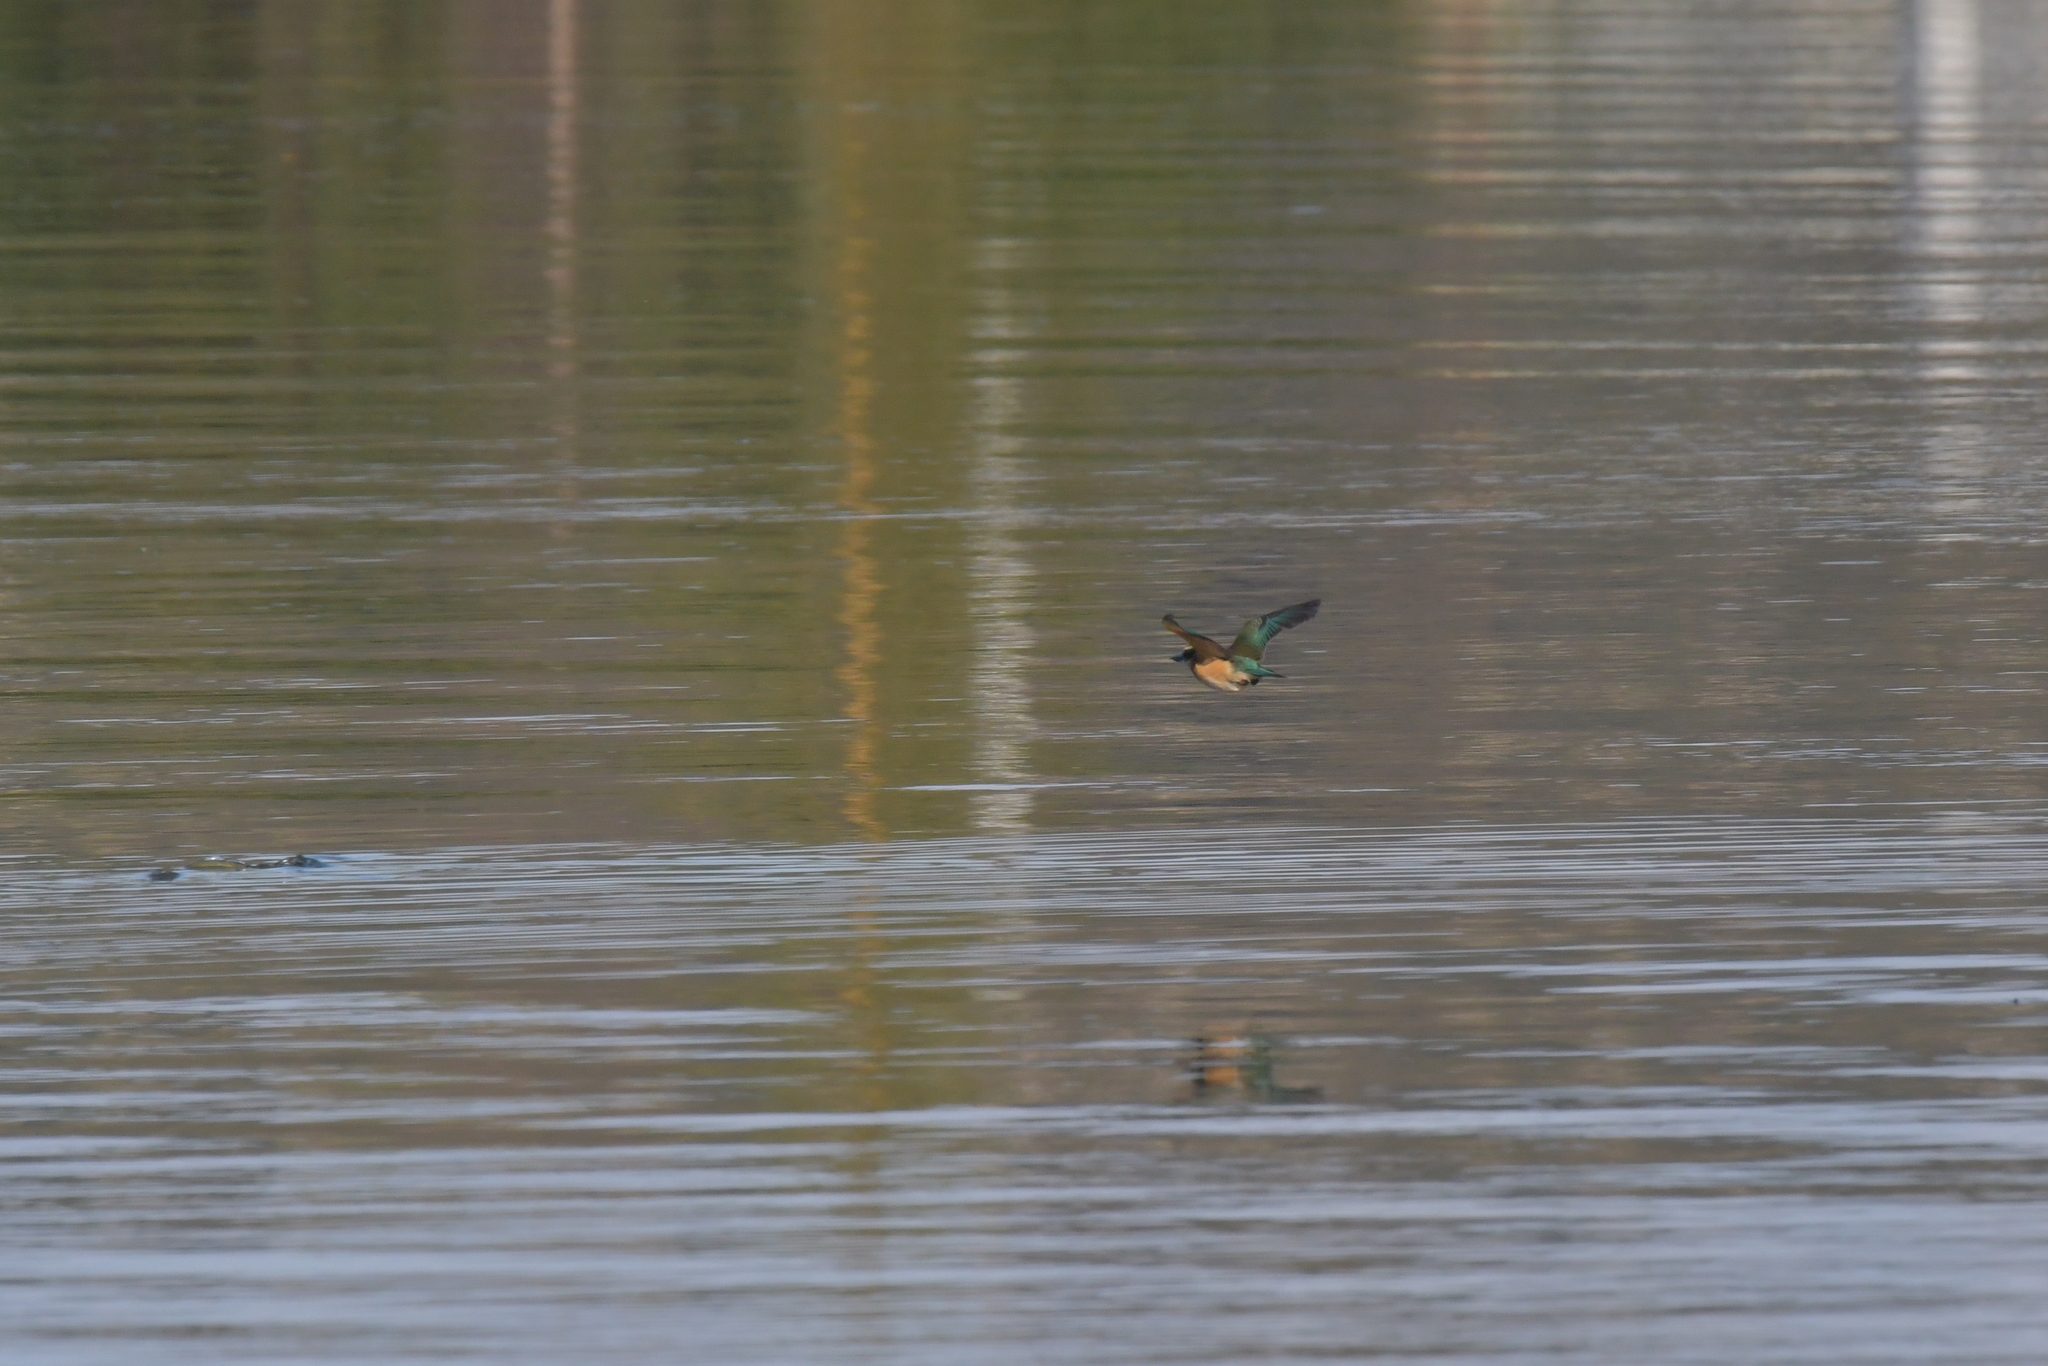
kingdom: Animalia
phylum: Chordata
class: Aves
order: Coraciiformes
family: Alcedinidae
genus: Todiramphus
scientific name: Todiramphus sanctus
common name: Sacred kingfisher
